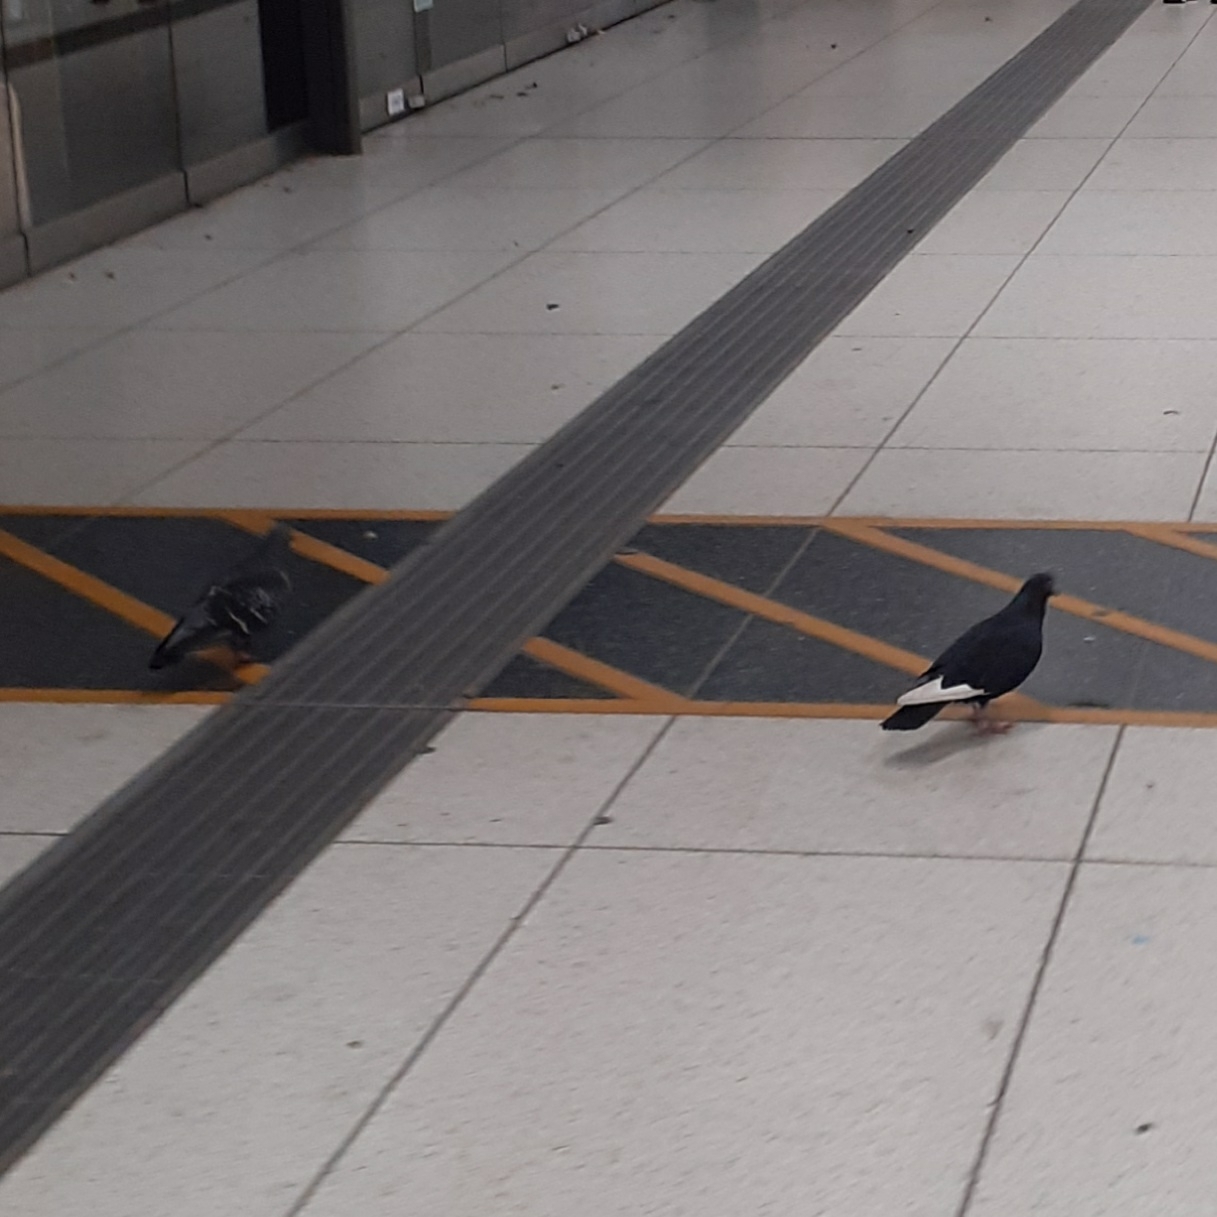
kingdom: Animalia
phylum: Chordata
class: Aves
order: Columbiformes
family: Columbidae
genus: Columba
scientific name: Columba livia
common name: Rock pigeon
